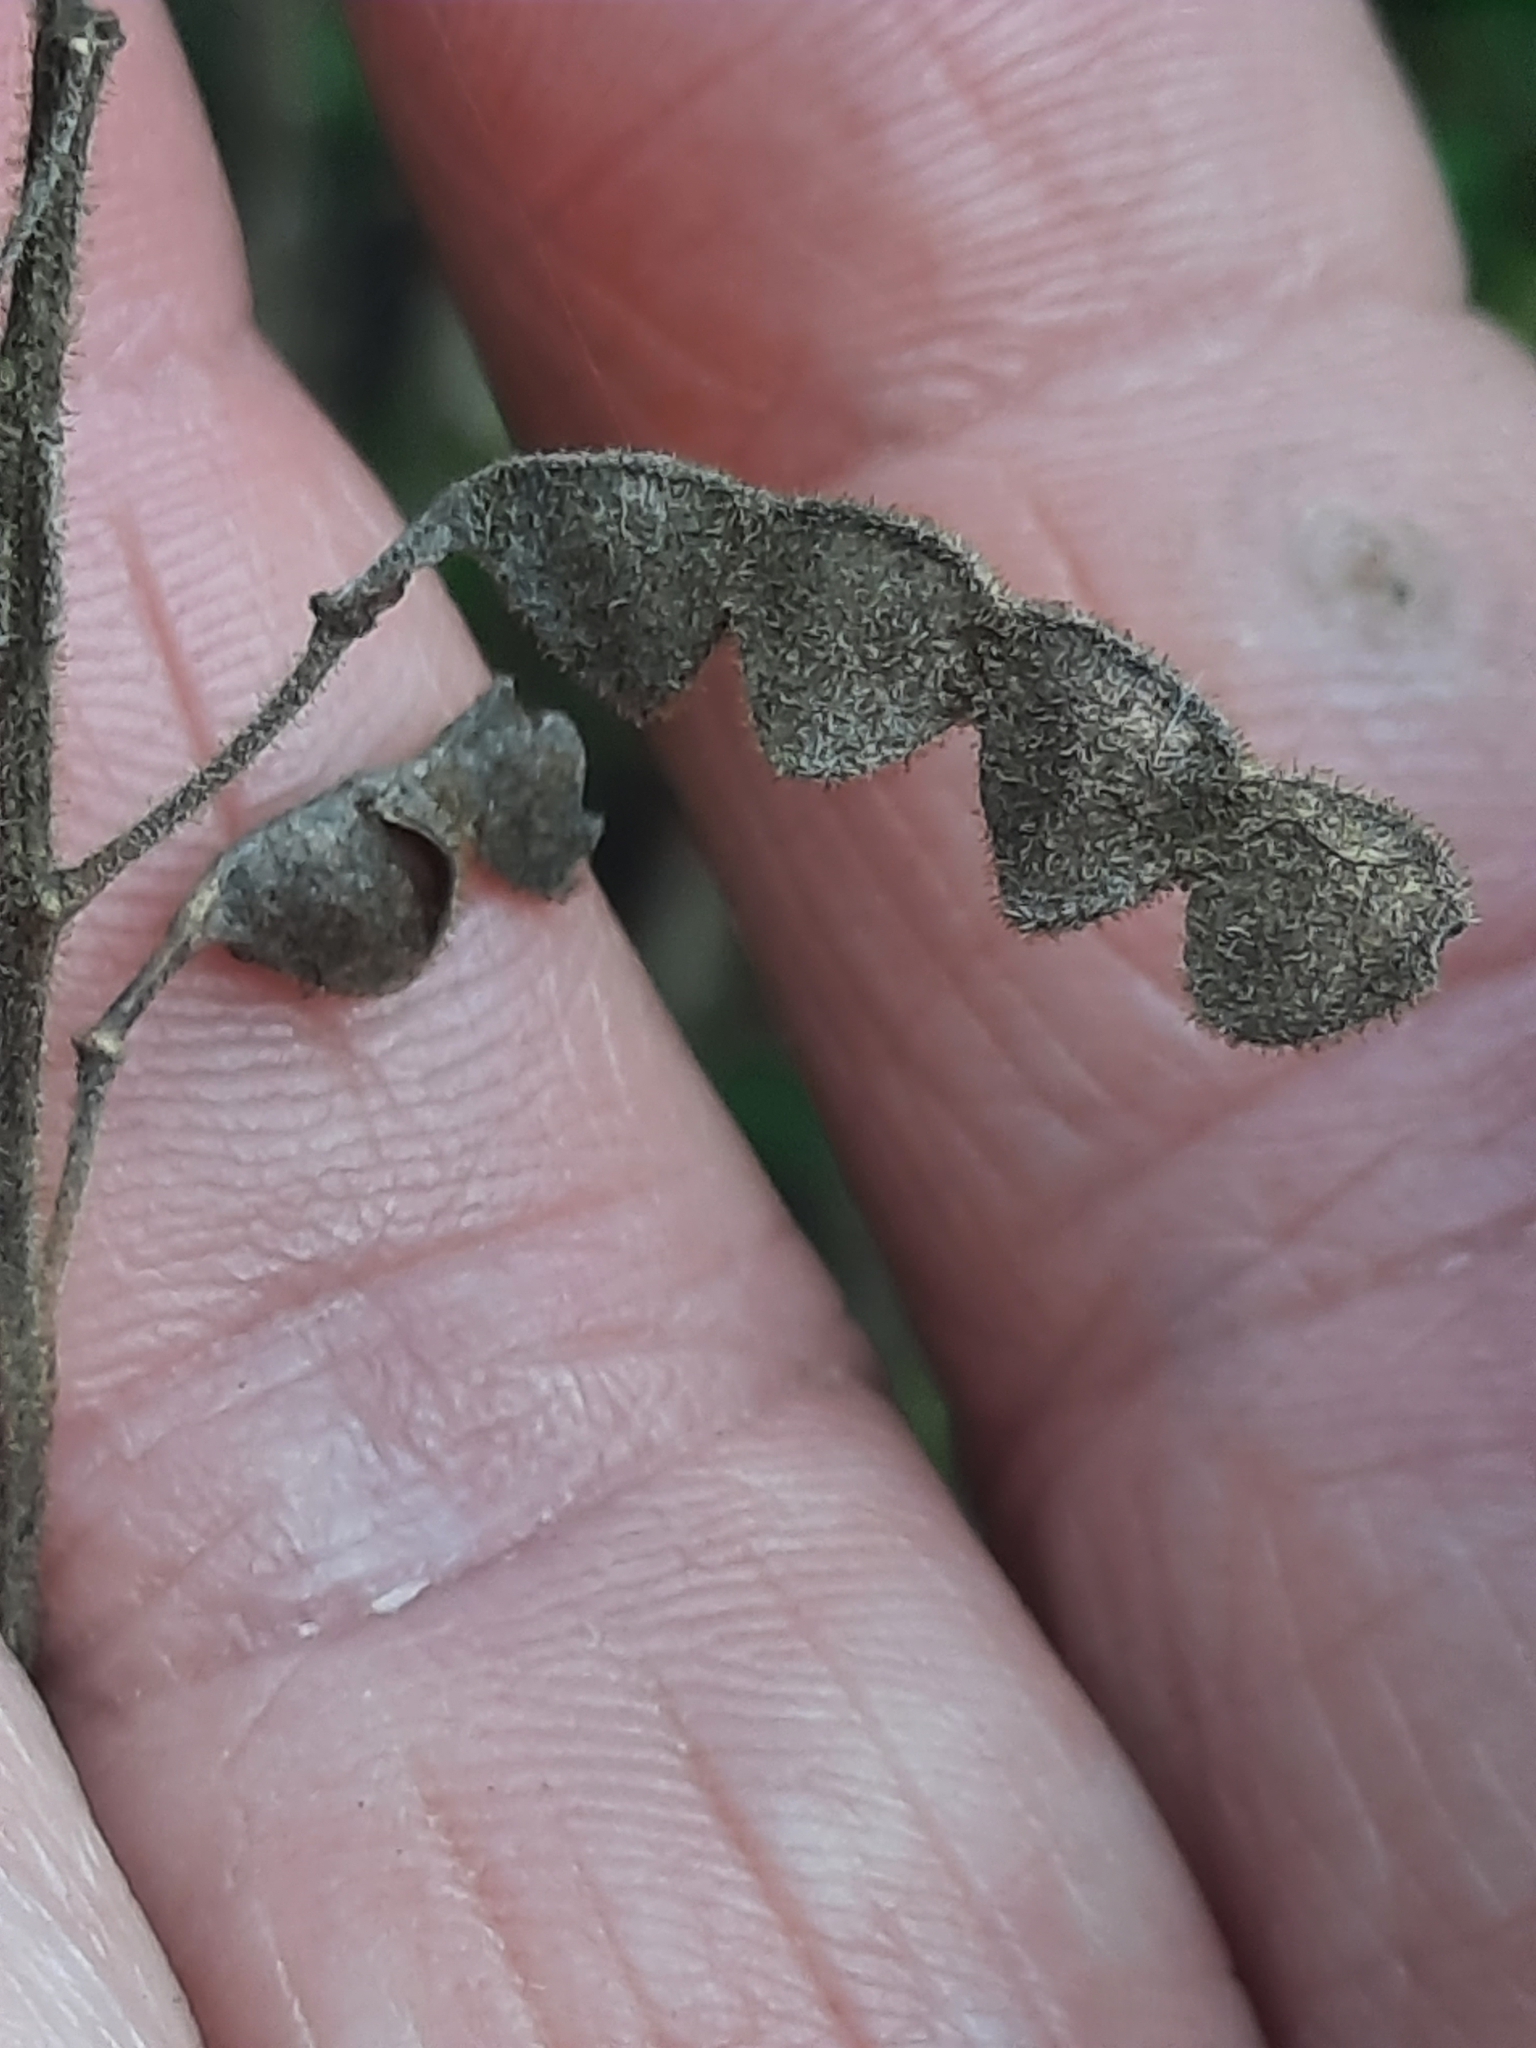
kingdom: Plantae
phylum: Tracheophyta
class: Magnoliopsida
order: Fabales
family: Fabaceae
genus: Desmodium
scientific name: Desmodium canadense
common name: Canada tick-trefoil
